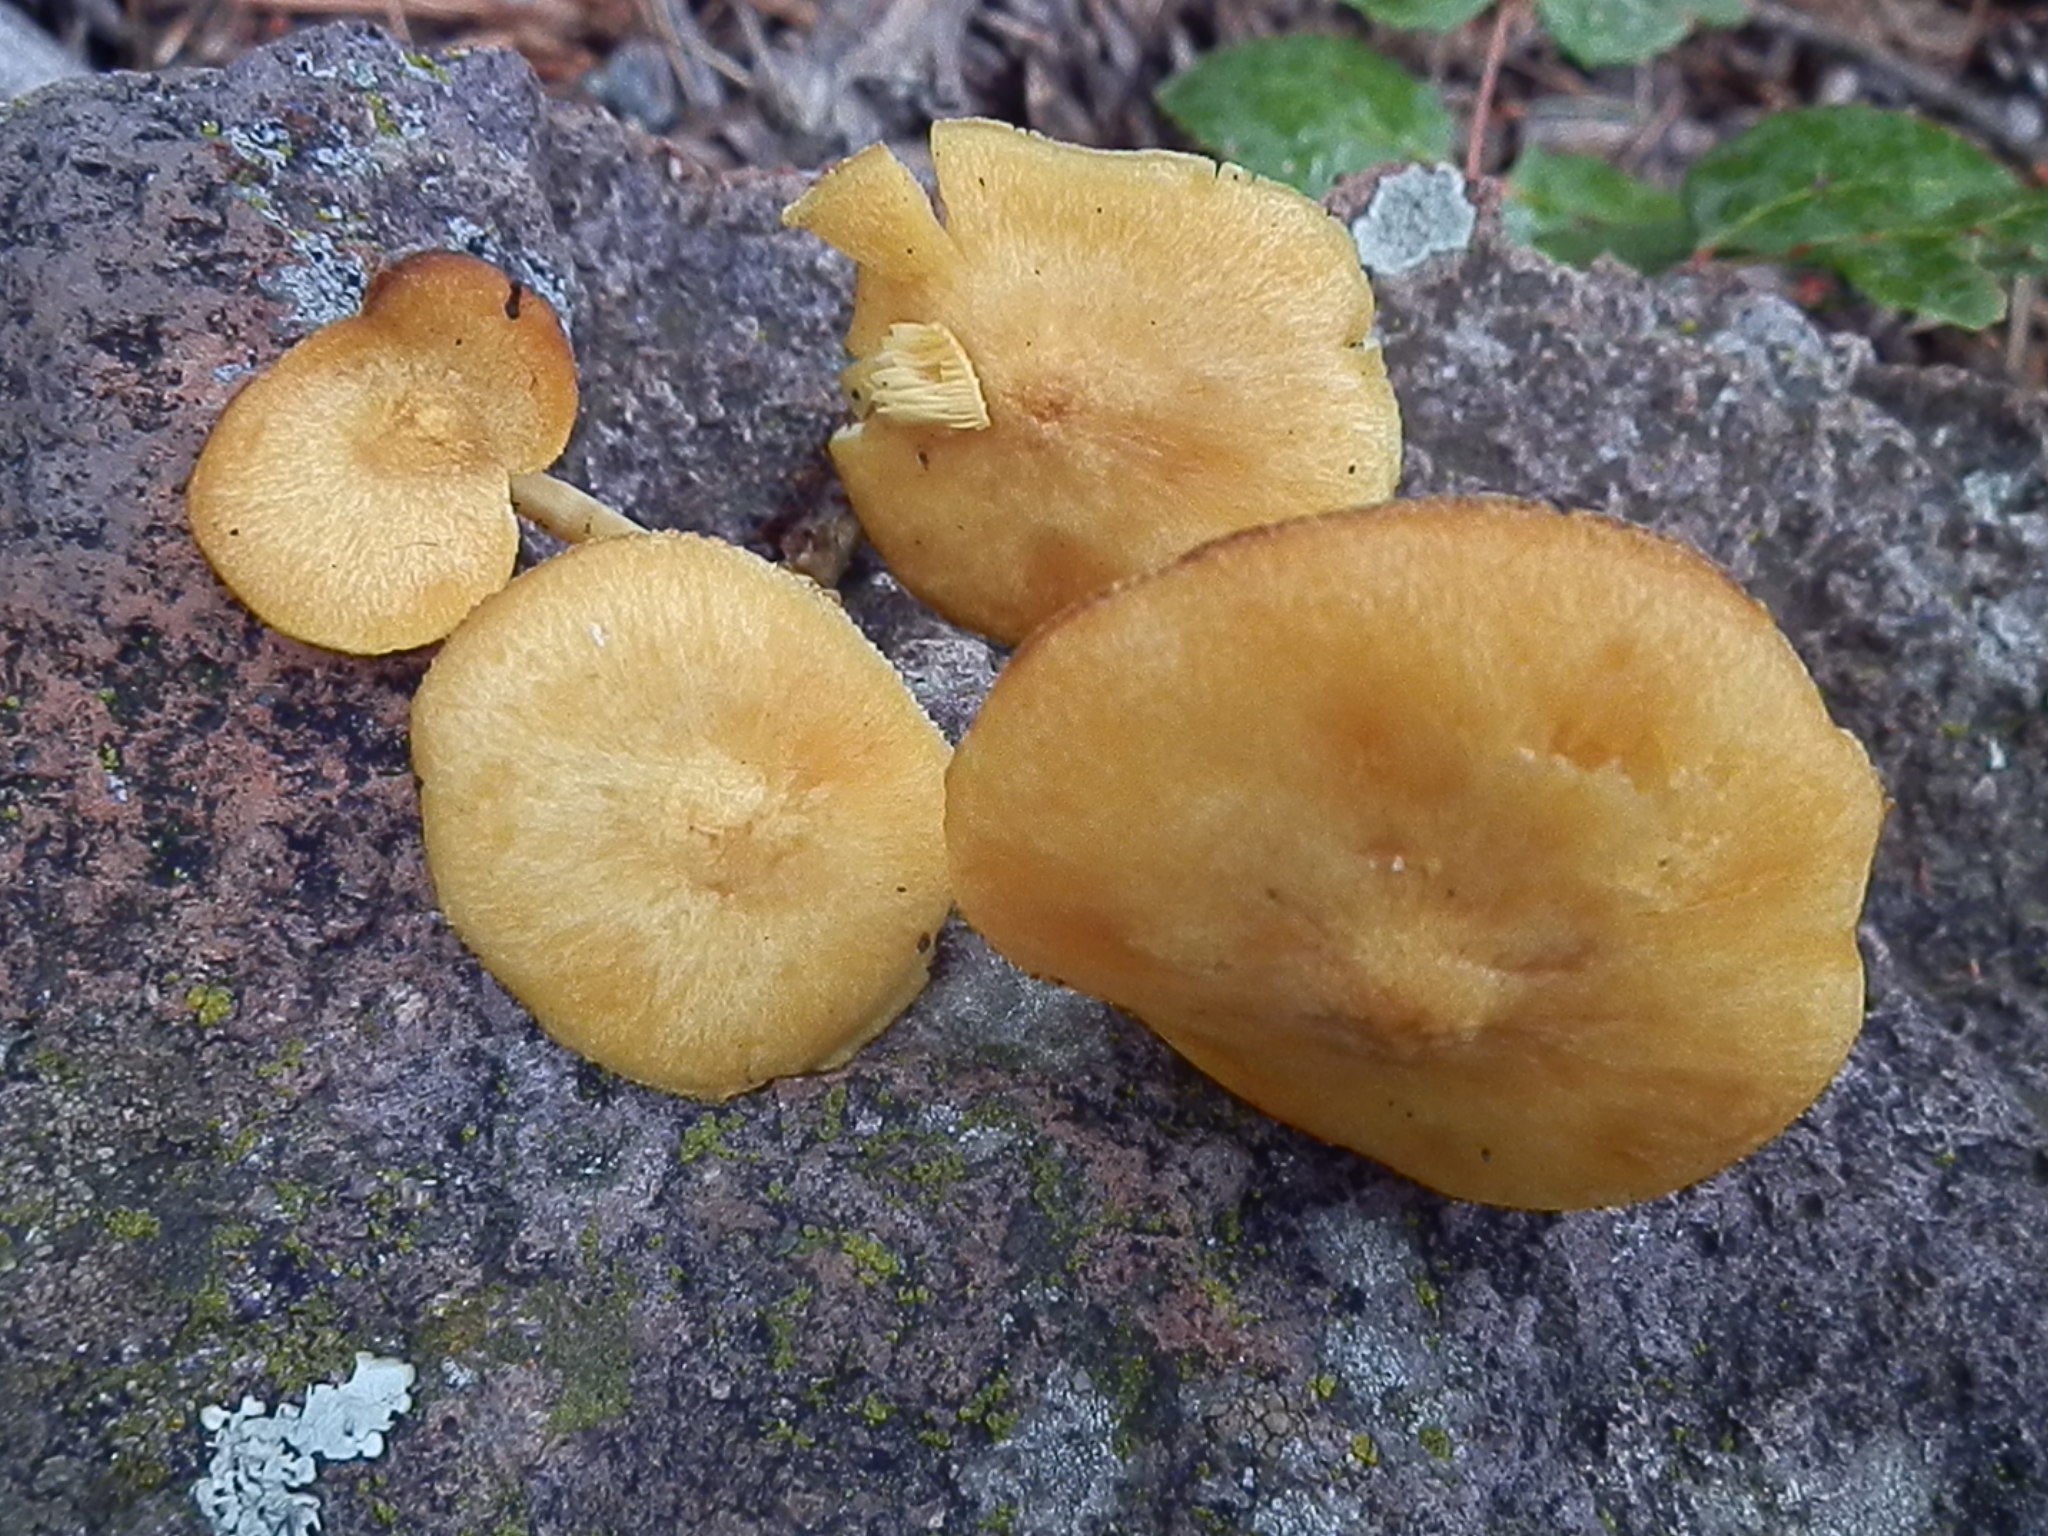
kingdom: Fungi
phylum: Basidiomycota
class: Agaricomycetes
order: Agaricales
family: Tricholomataceae
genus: Tricholomopsis
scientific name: Tricholomopsis sulfureoides
